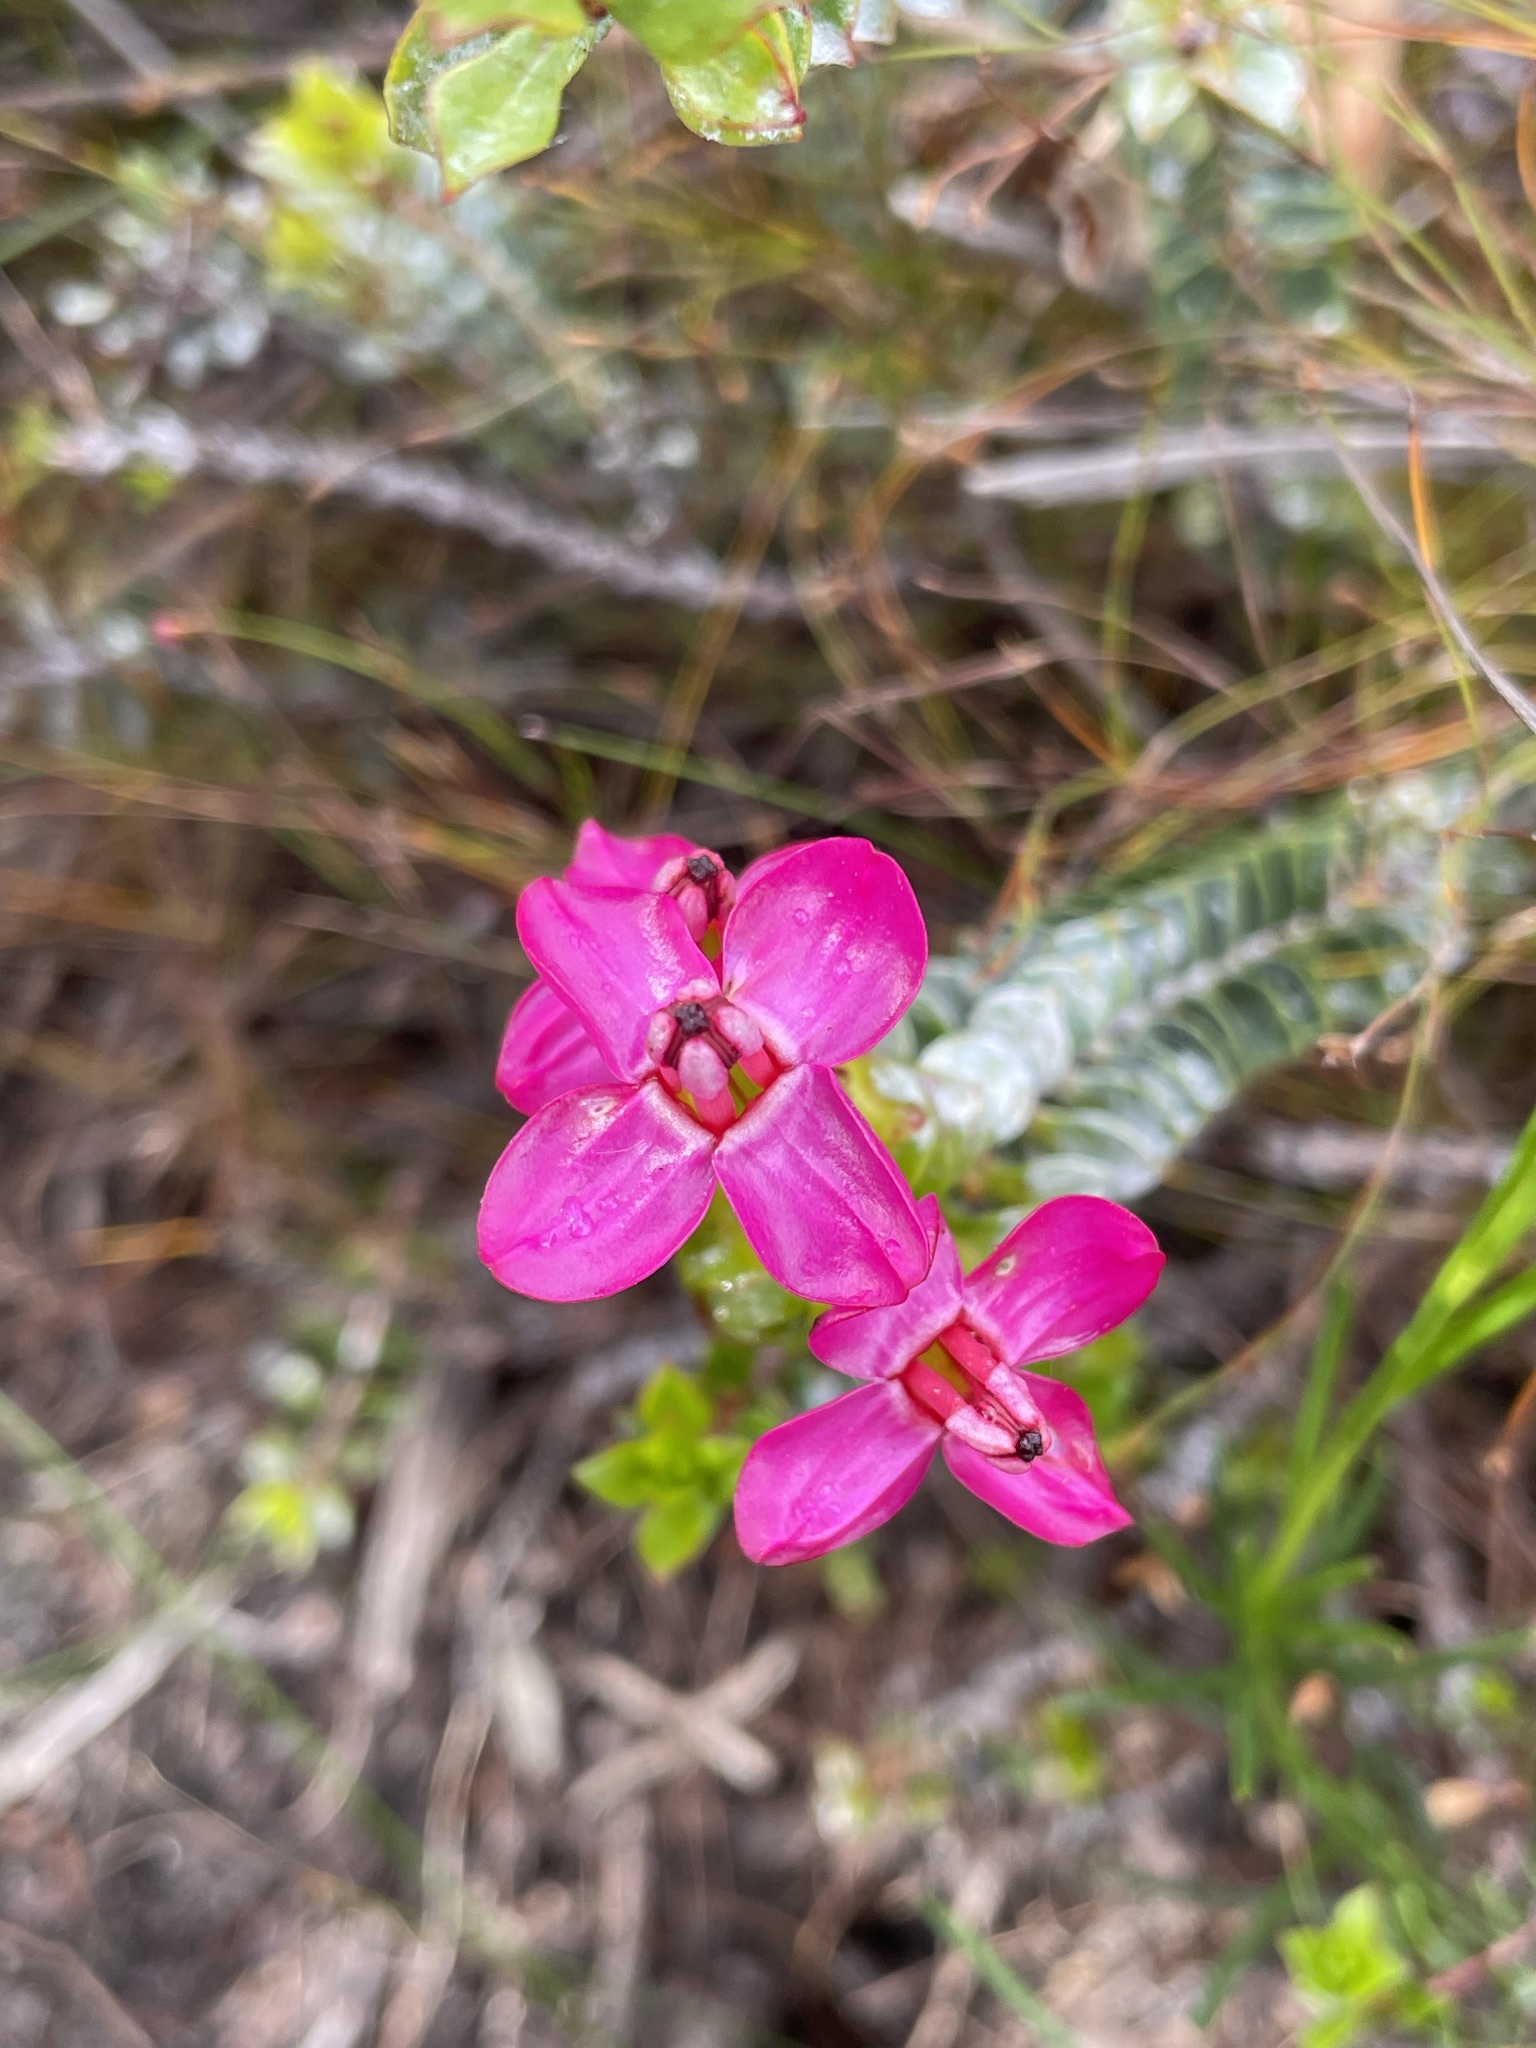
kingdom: Plantae
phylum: Tracheophyta
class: Magnoliopsida
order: Myrtales
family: Penaeaceae
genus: Saltera
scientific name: Saltera sarcocolla
